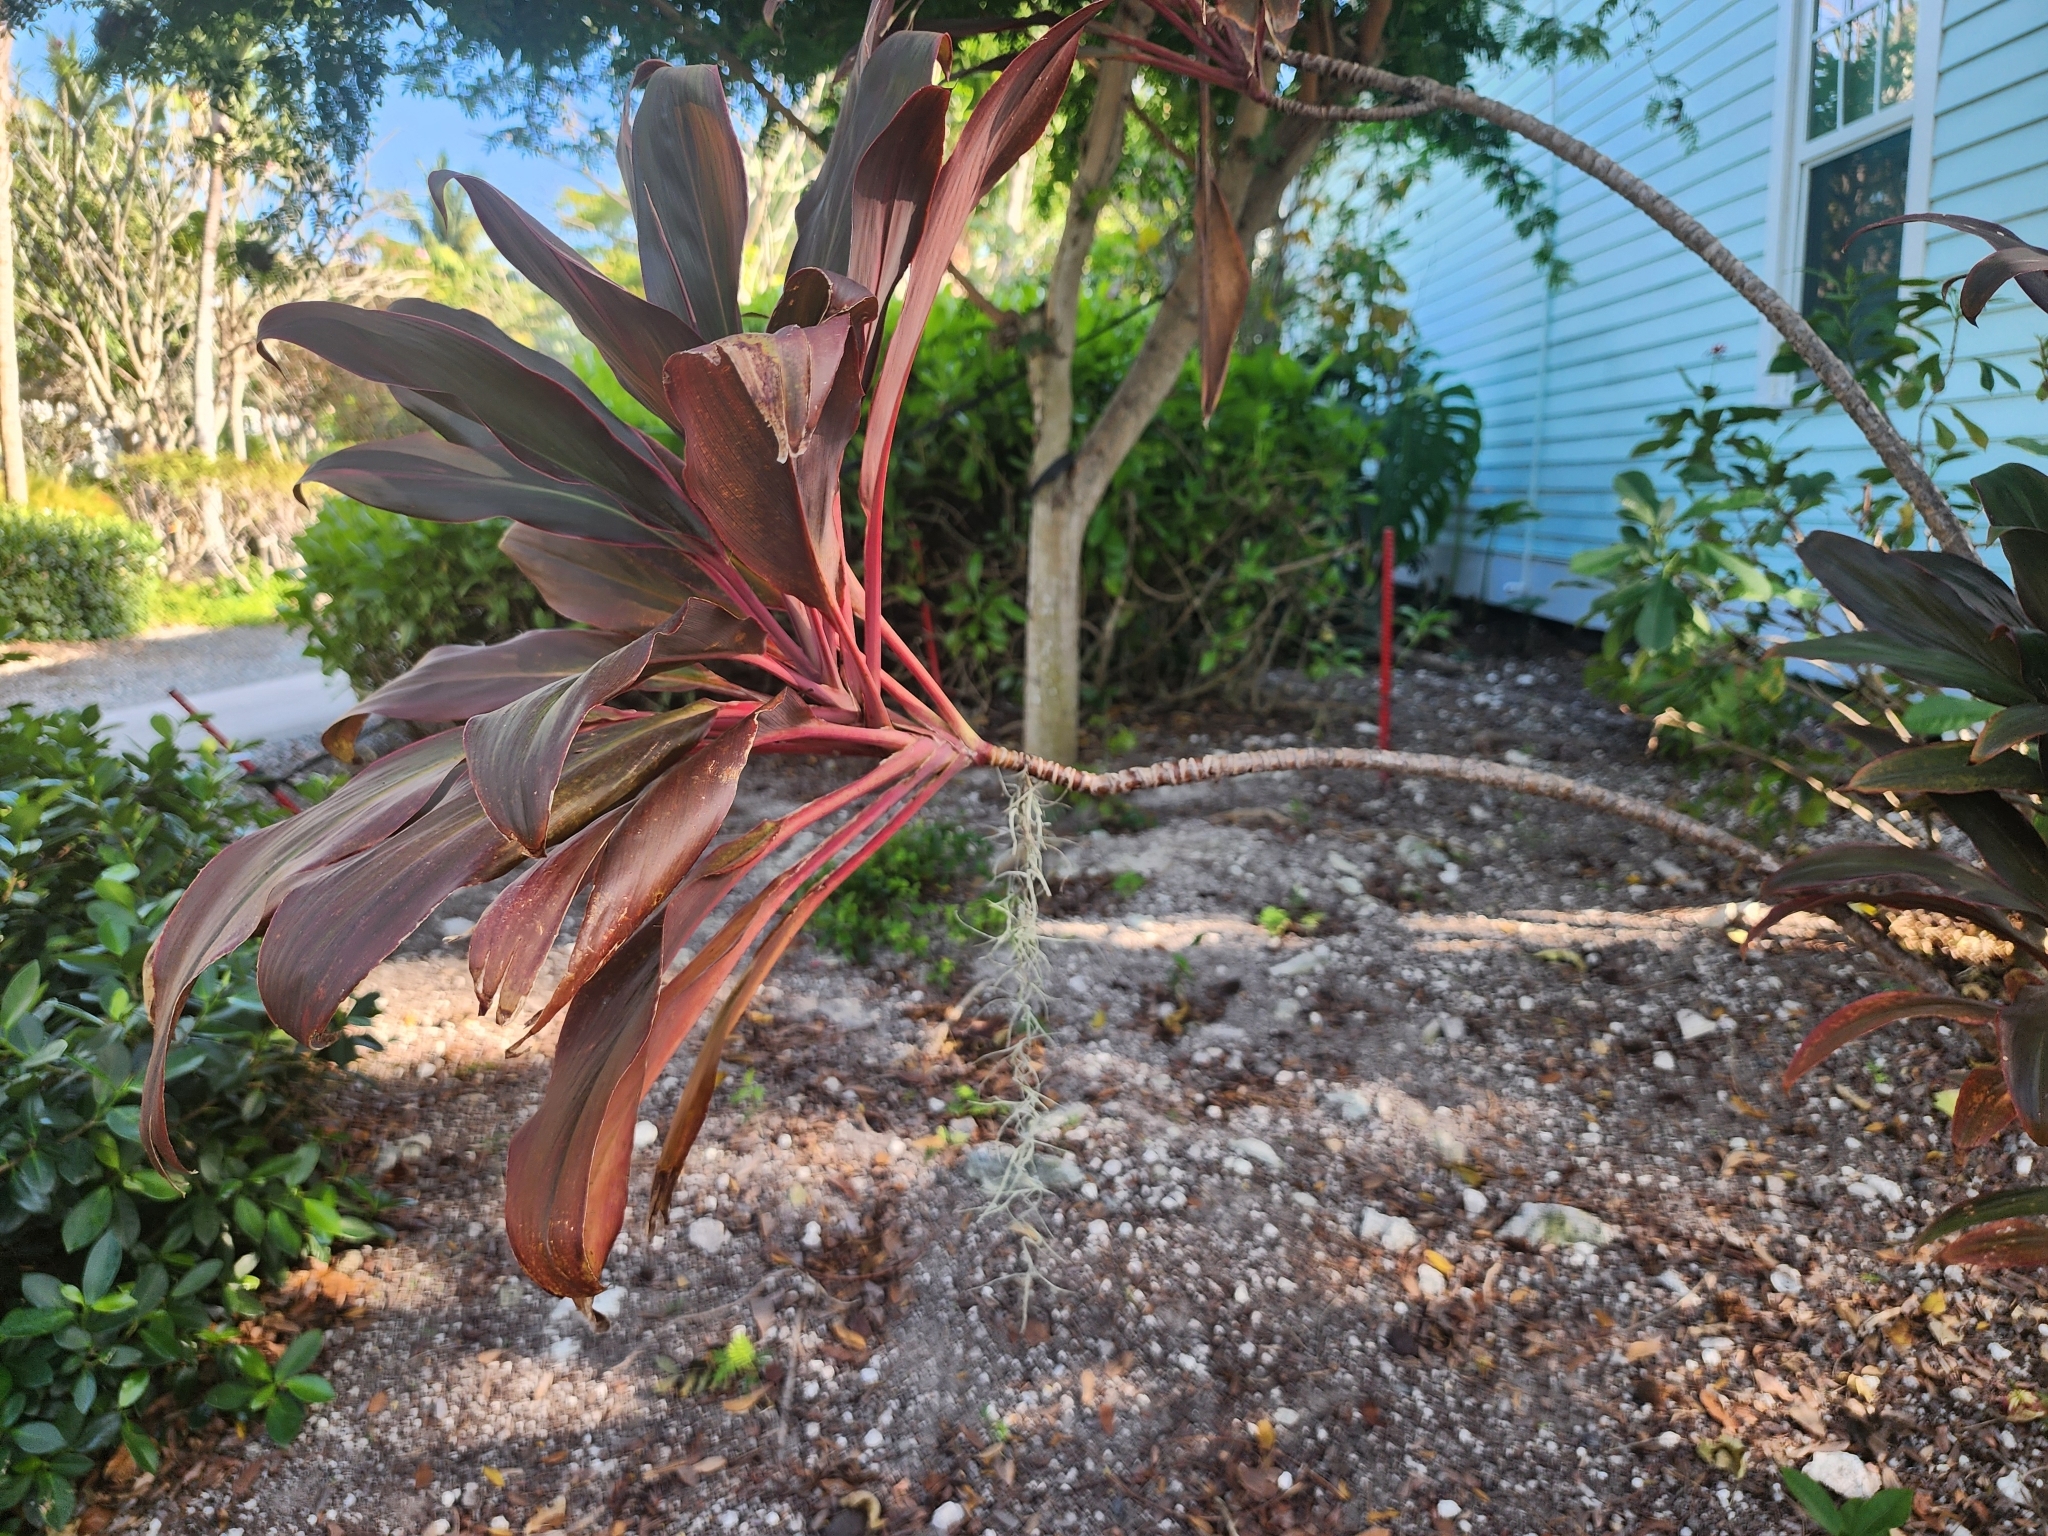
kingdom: Plantae
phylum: Tracheophyta
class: Liliopsida
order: Poales
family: Bromeliaceae
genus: Tillandsia
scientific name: Tillandsia usneoides
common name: Spanish moss
